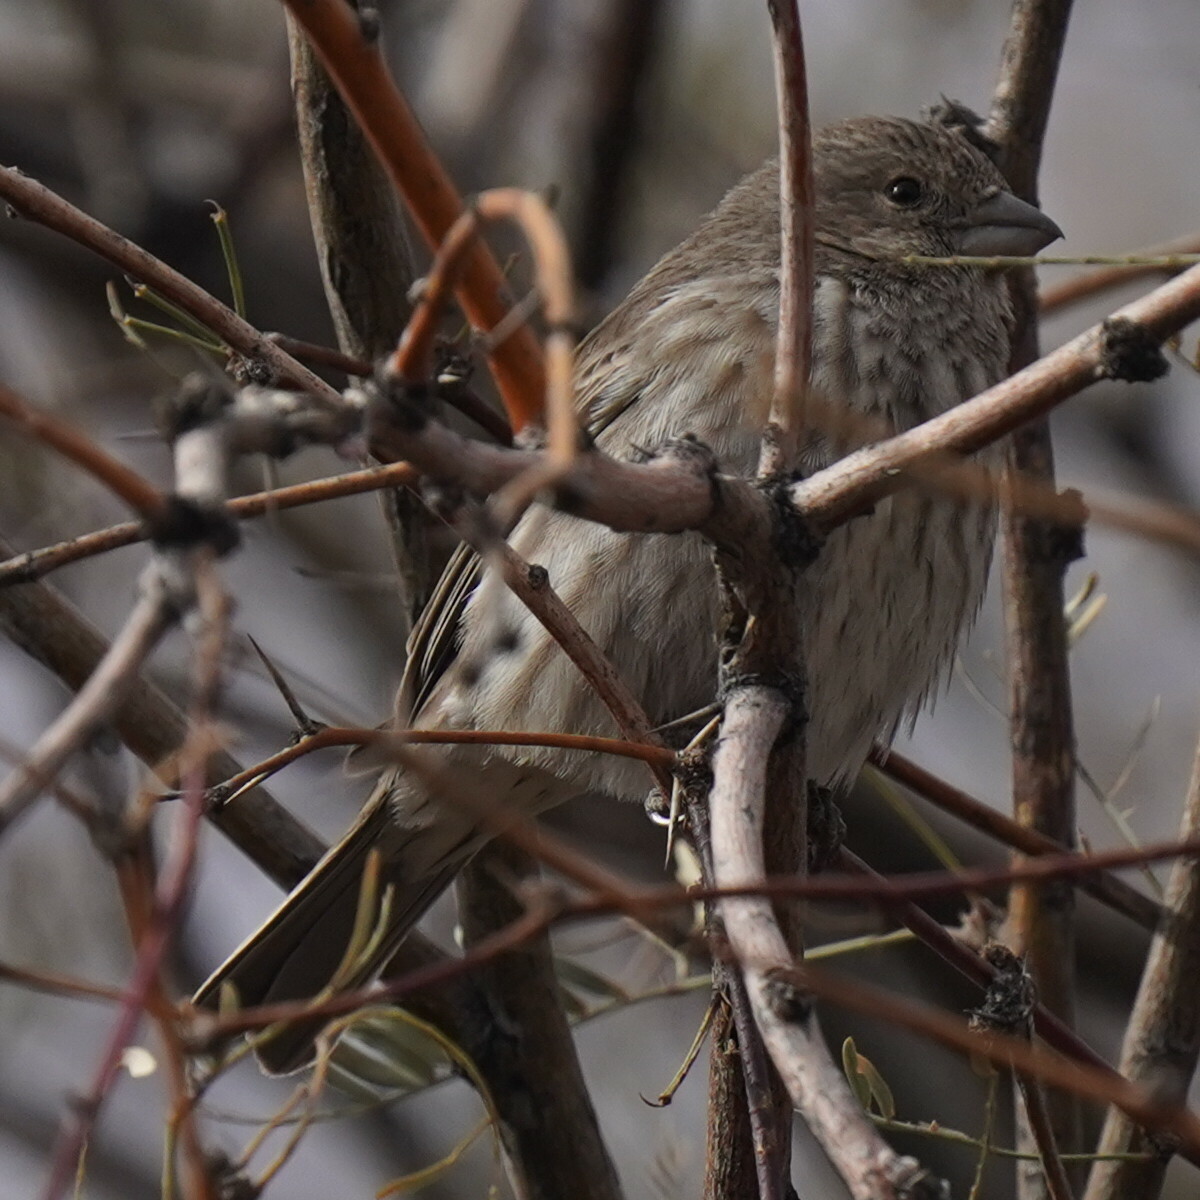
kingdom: Animalia
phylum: Chordata
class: Aves
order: Passeriformes
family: Fringillidae
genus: Haemorhous
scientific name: Haemorhous mexicanus
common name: House finch
